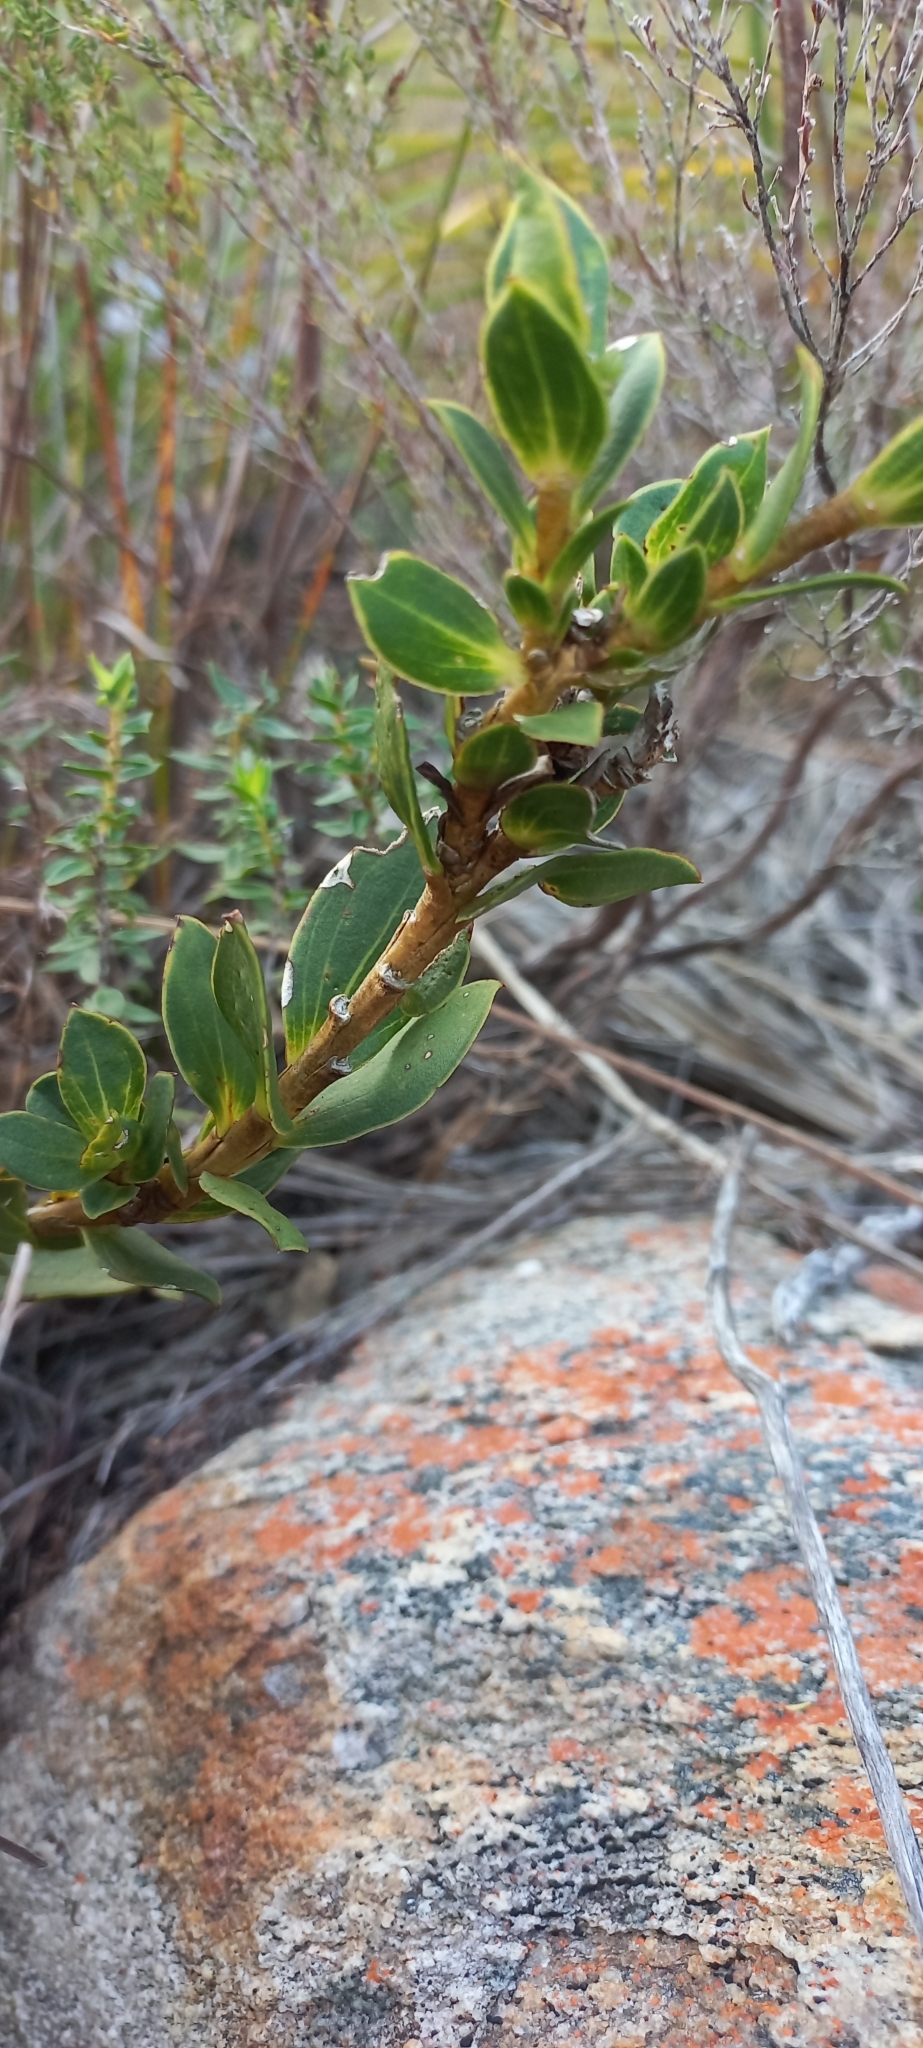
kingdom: Plantae
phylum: Tracheophyta
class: Magnoliopsida
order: Fabales
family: Fabaceae
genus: Liparia
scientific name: Liparia splendens
